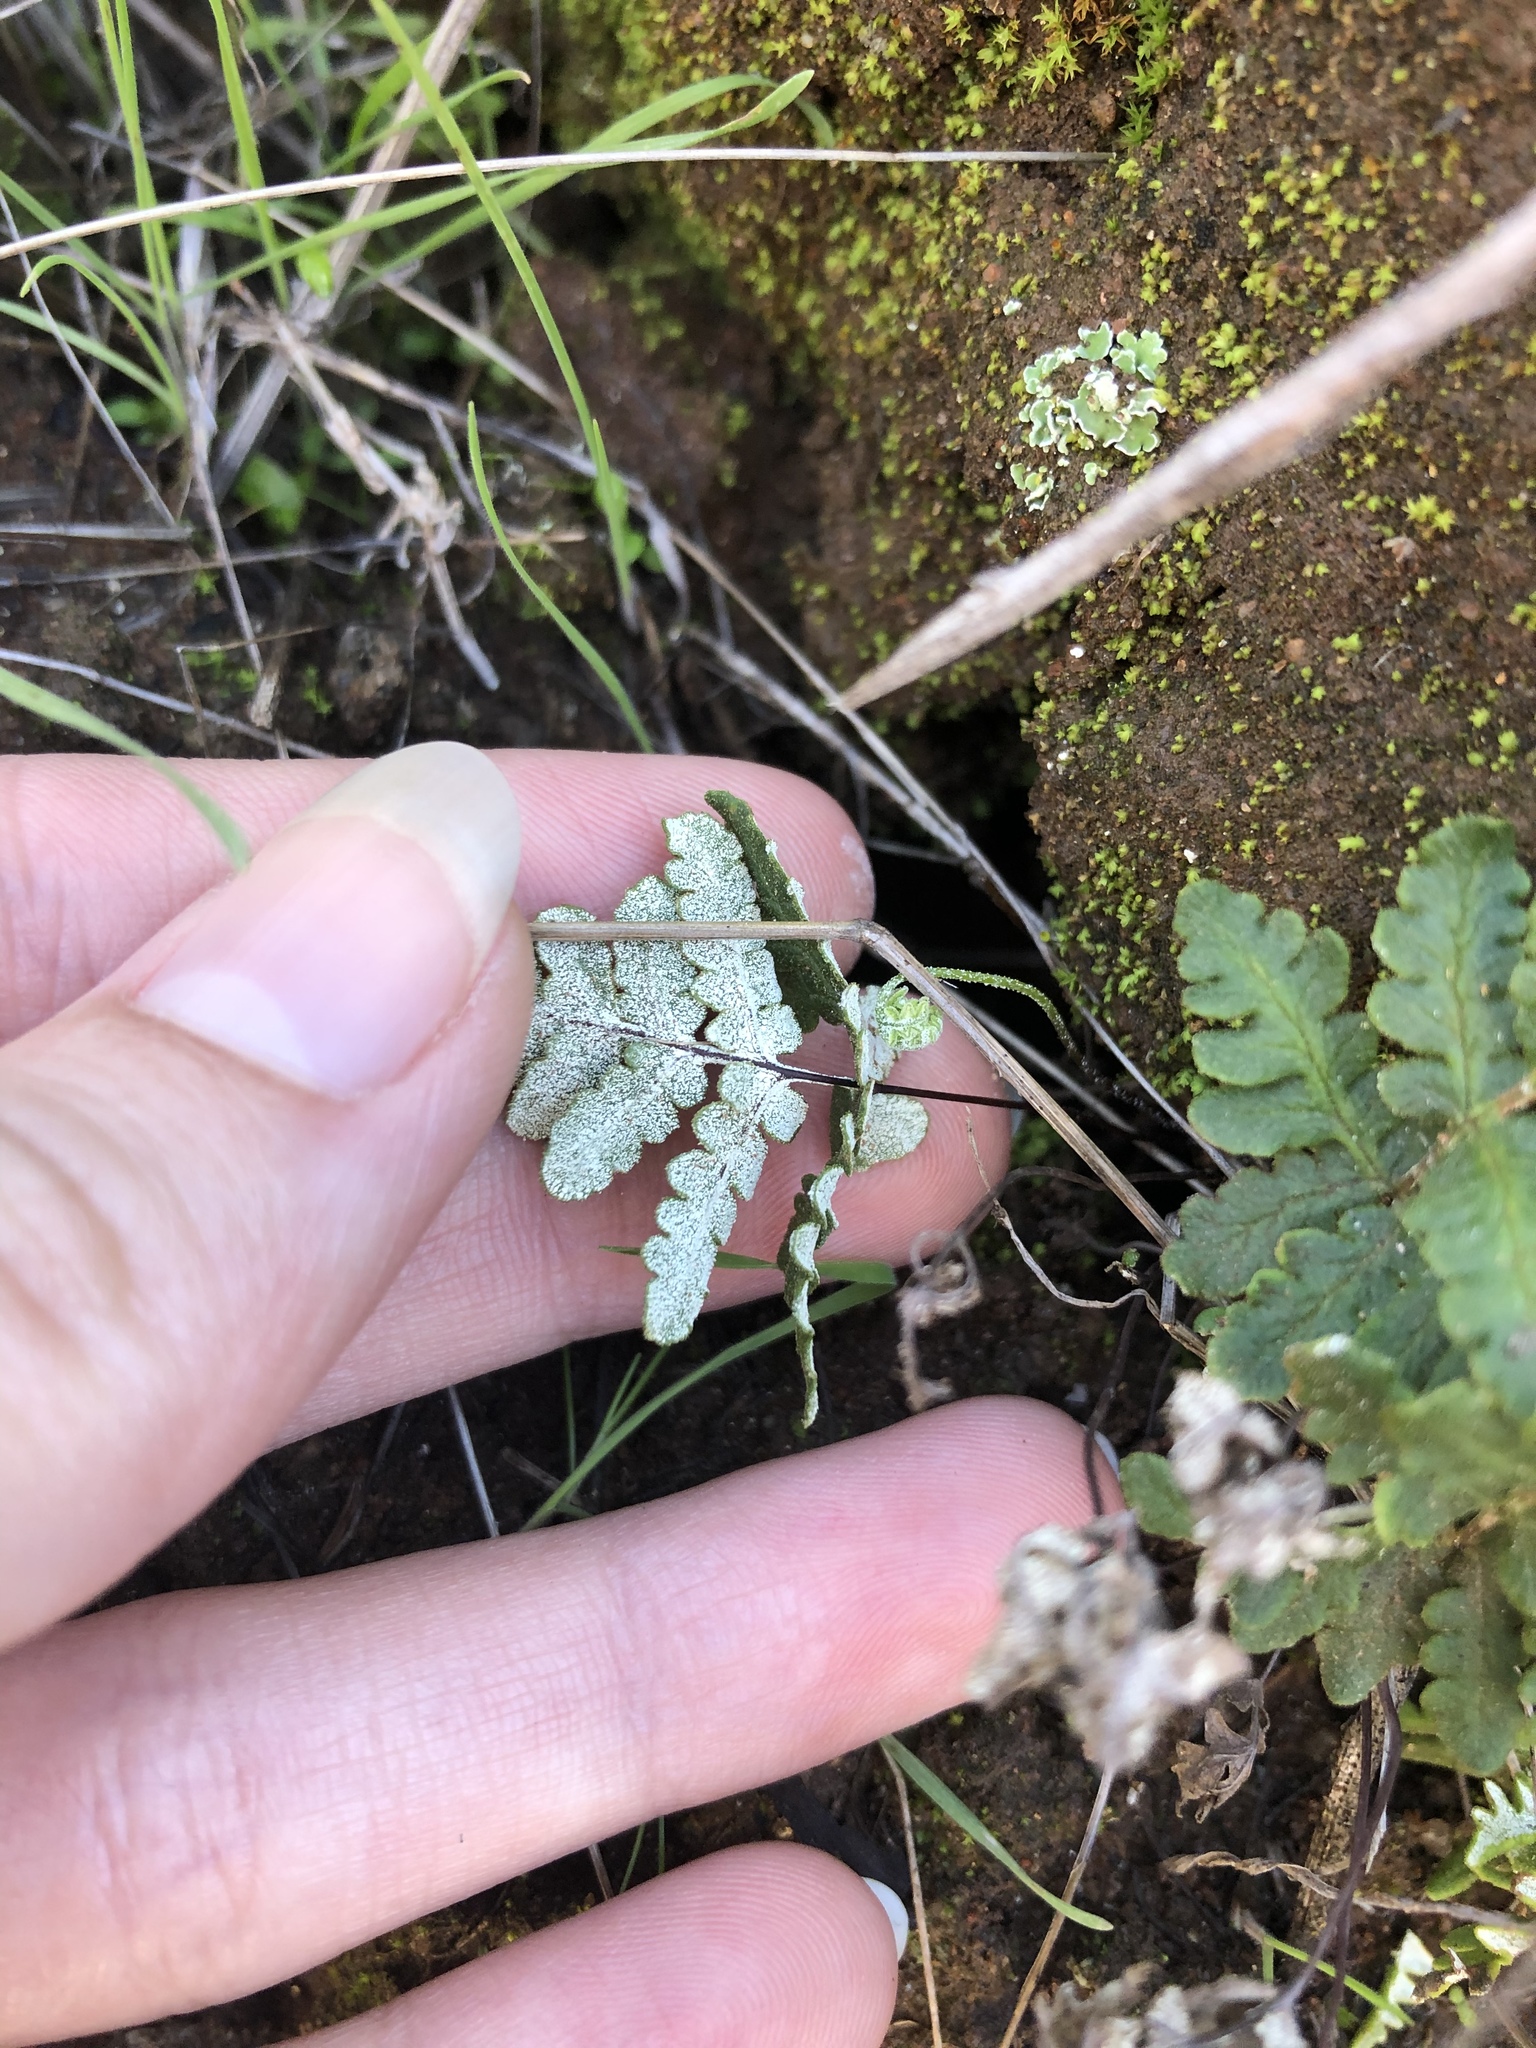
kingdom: Plantae
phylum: Tracheophyta
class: Polypodiopsida
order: Polypodiales
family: Pteridaceae
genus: Pentagramma
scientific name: Pentagramma glanduloviscida
